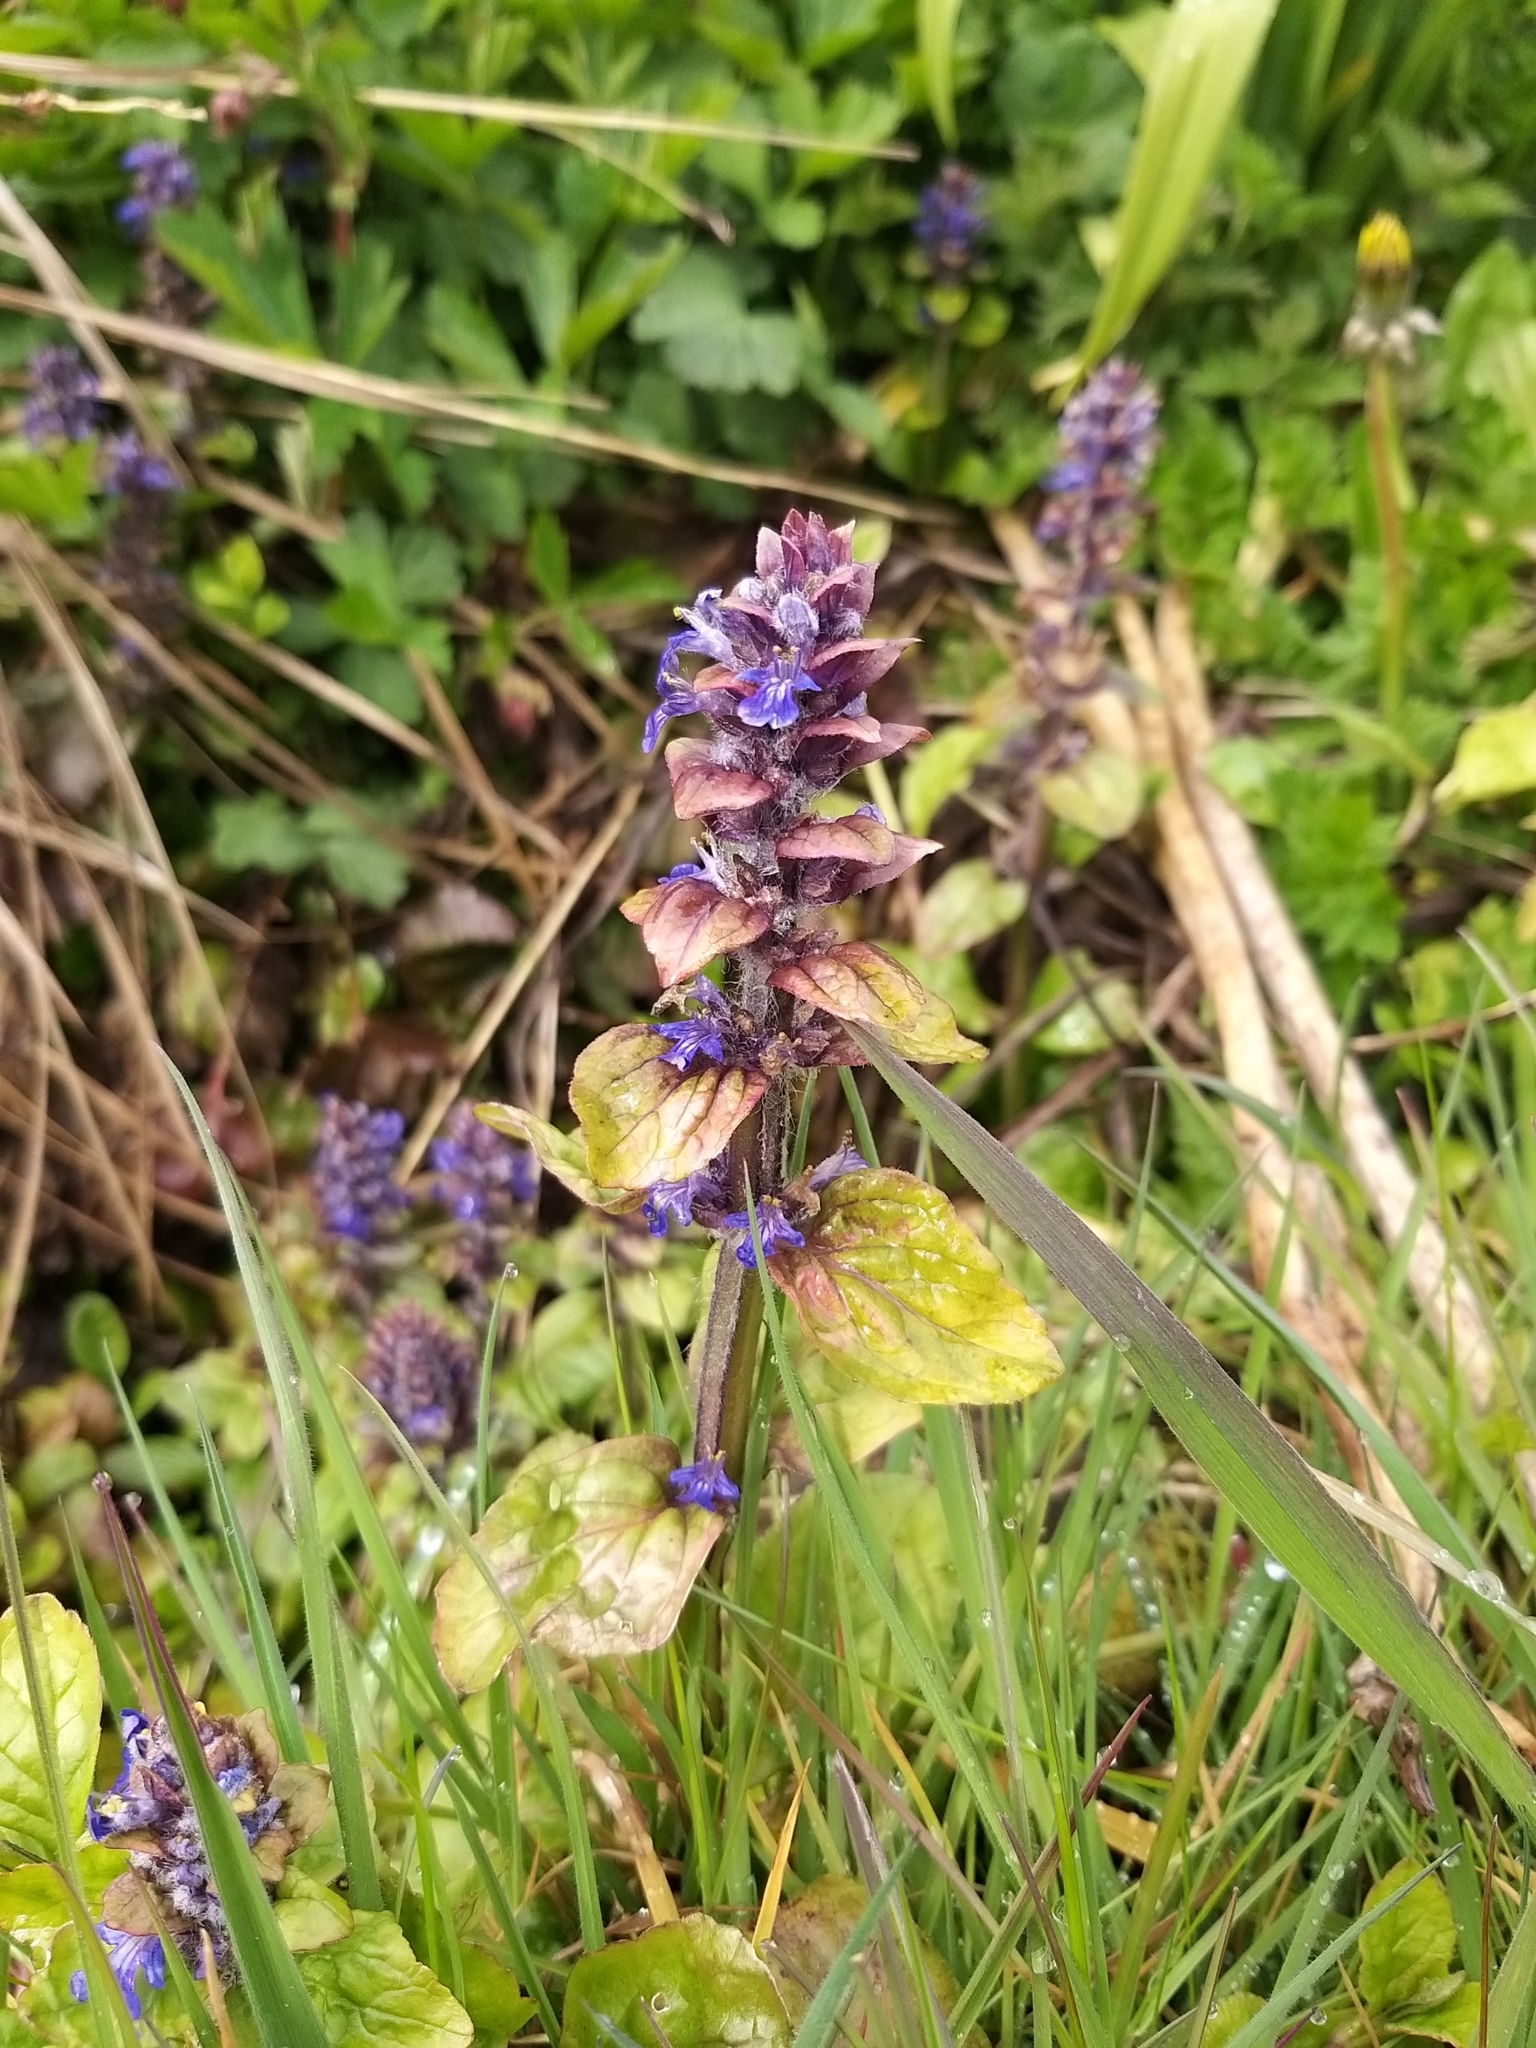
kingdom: Plantae
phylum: Tracheophyta
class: Magnoliopsida
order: Lamiales
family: Lamiaceae
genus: Ajuga
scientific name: Ajuga reptans
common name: Bugle
